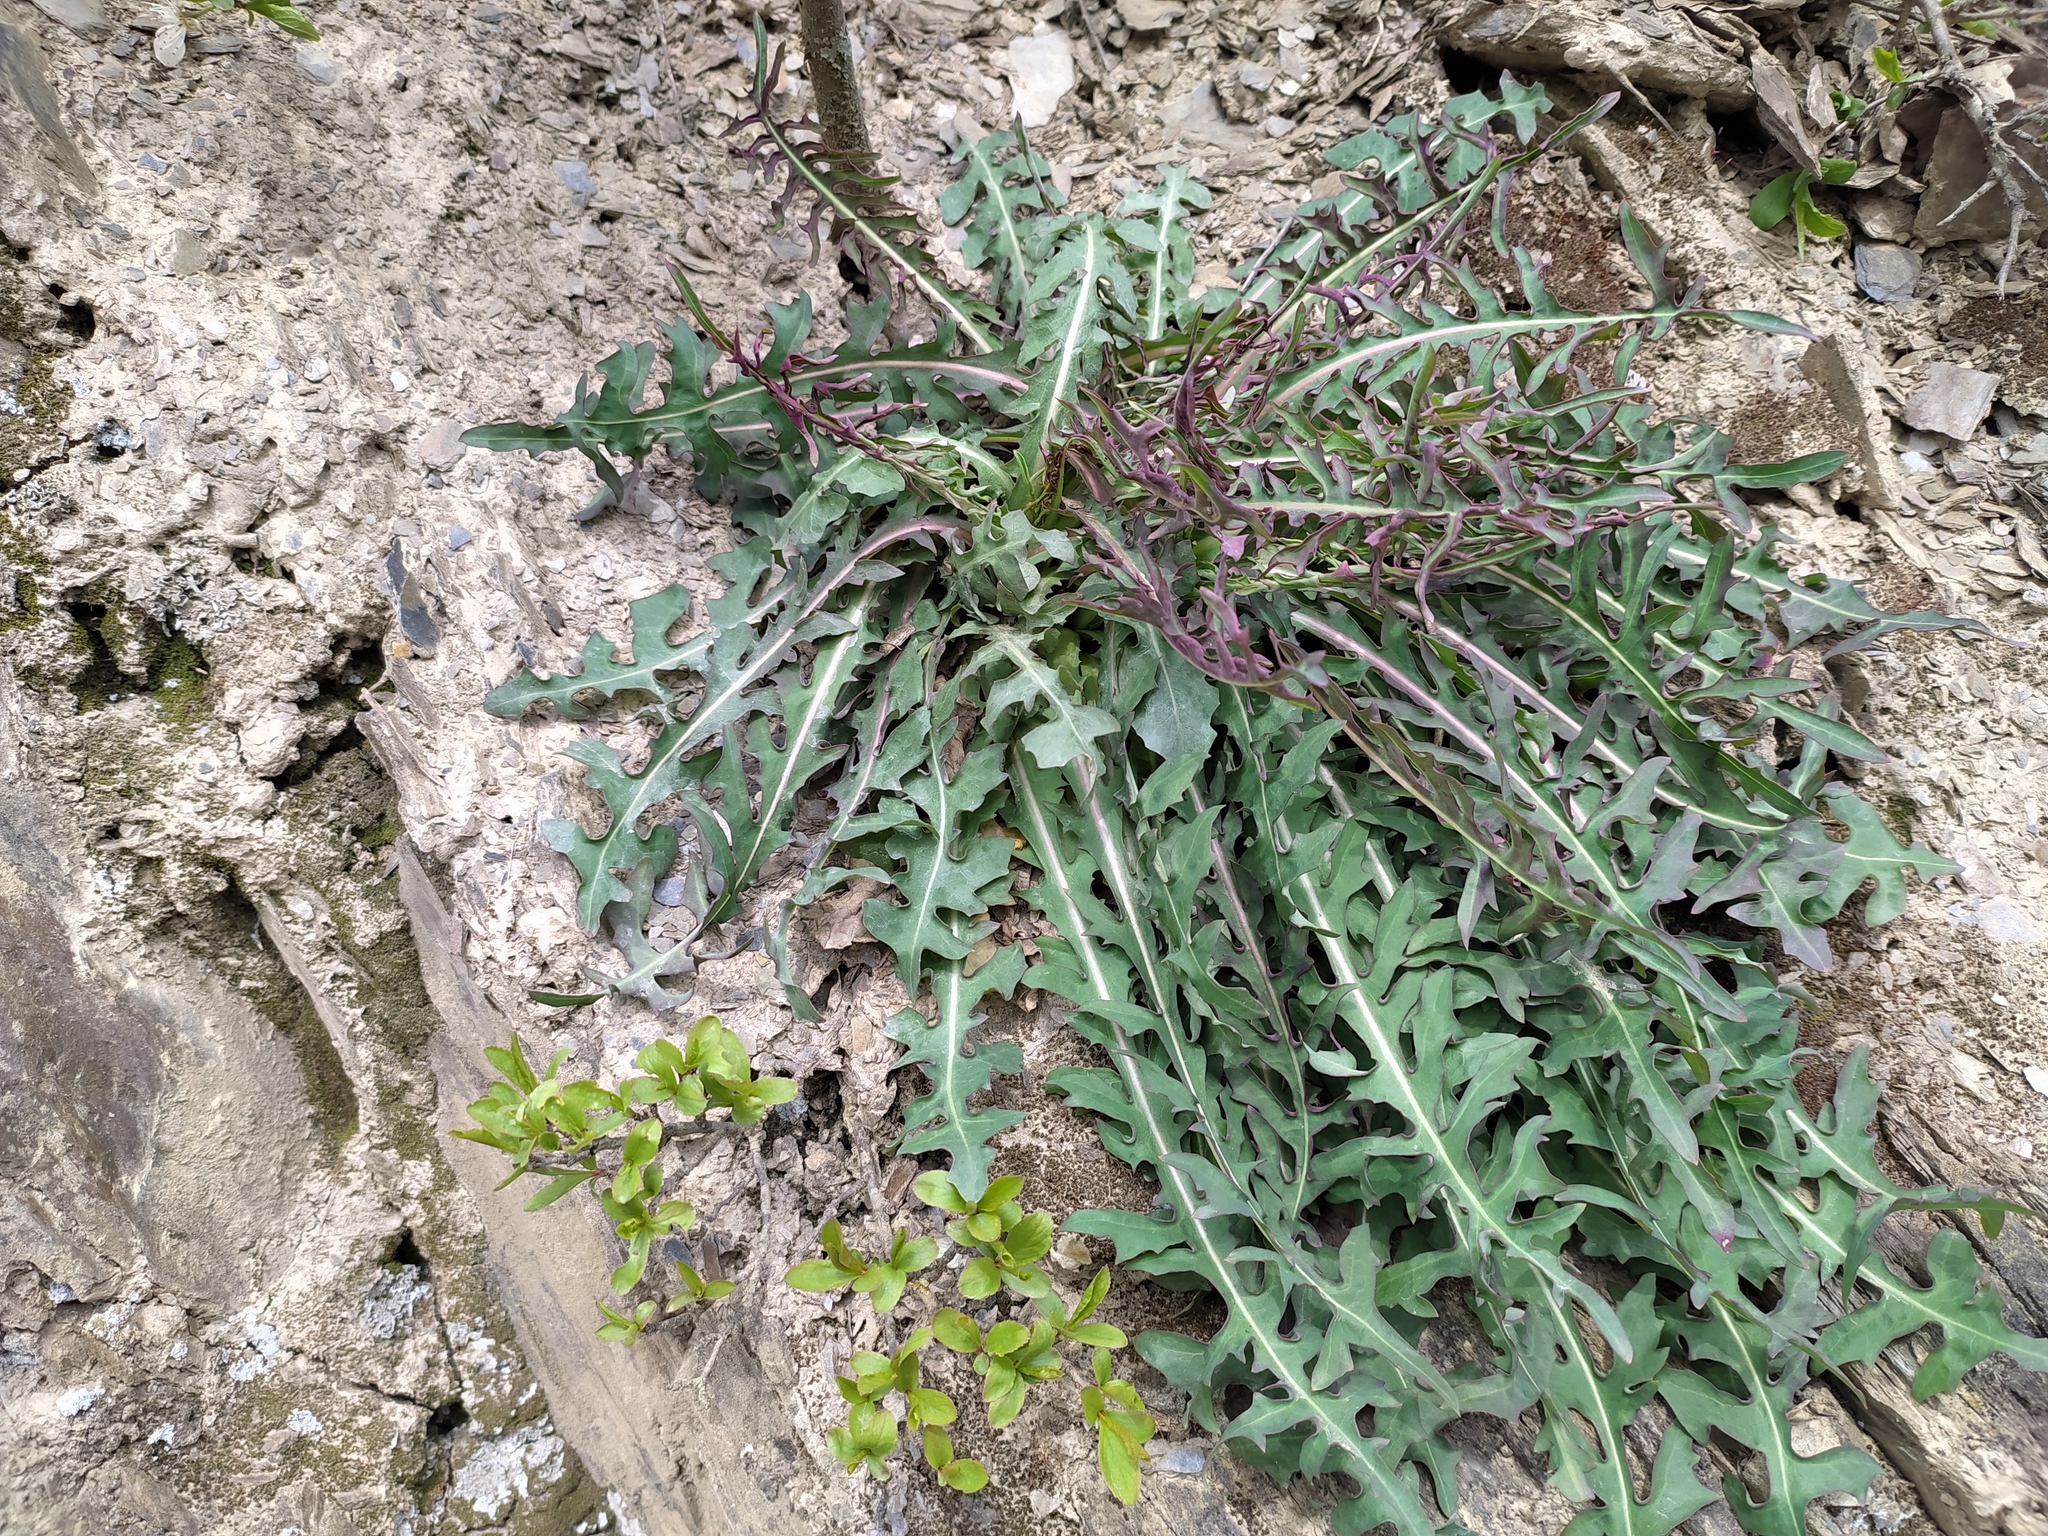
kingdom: Plantae
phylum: Tracheophyta
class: Magnoliopsida
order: Asterales
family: Asteraceae
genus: Lactuca
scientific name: Lactuca perennis
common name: Mountain lettuce
